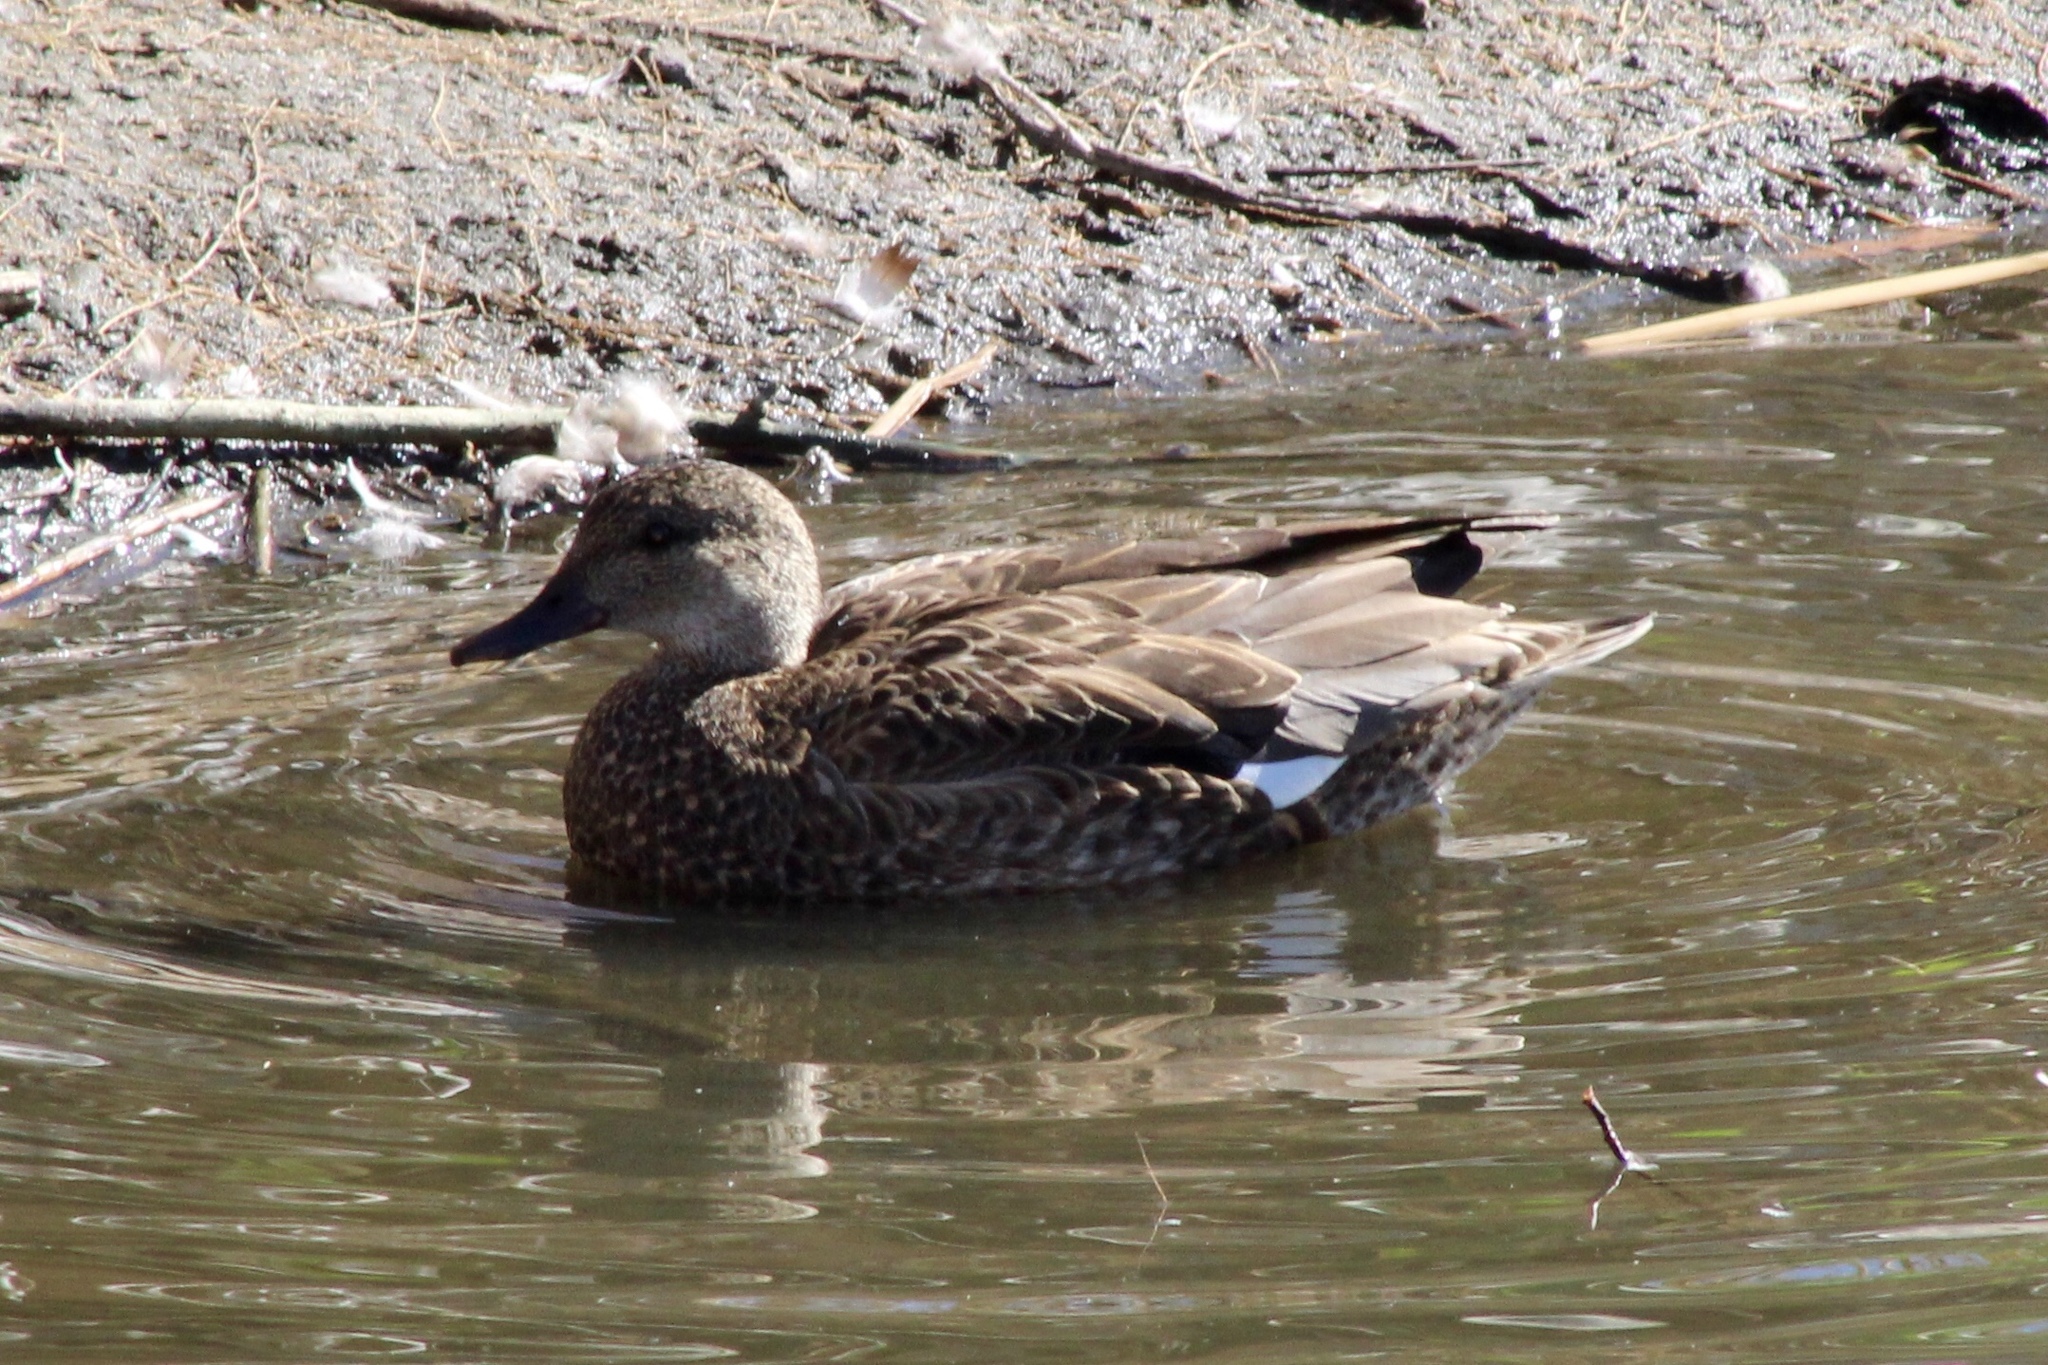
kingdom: Animalia
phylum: Chordata
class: Aves
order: Anseriformes
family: Anatidae
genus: Mareca
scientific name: Mareca strepera
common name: Gadwall
